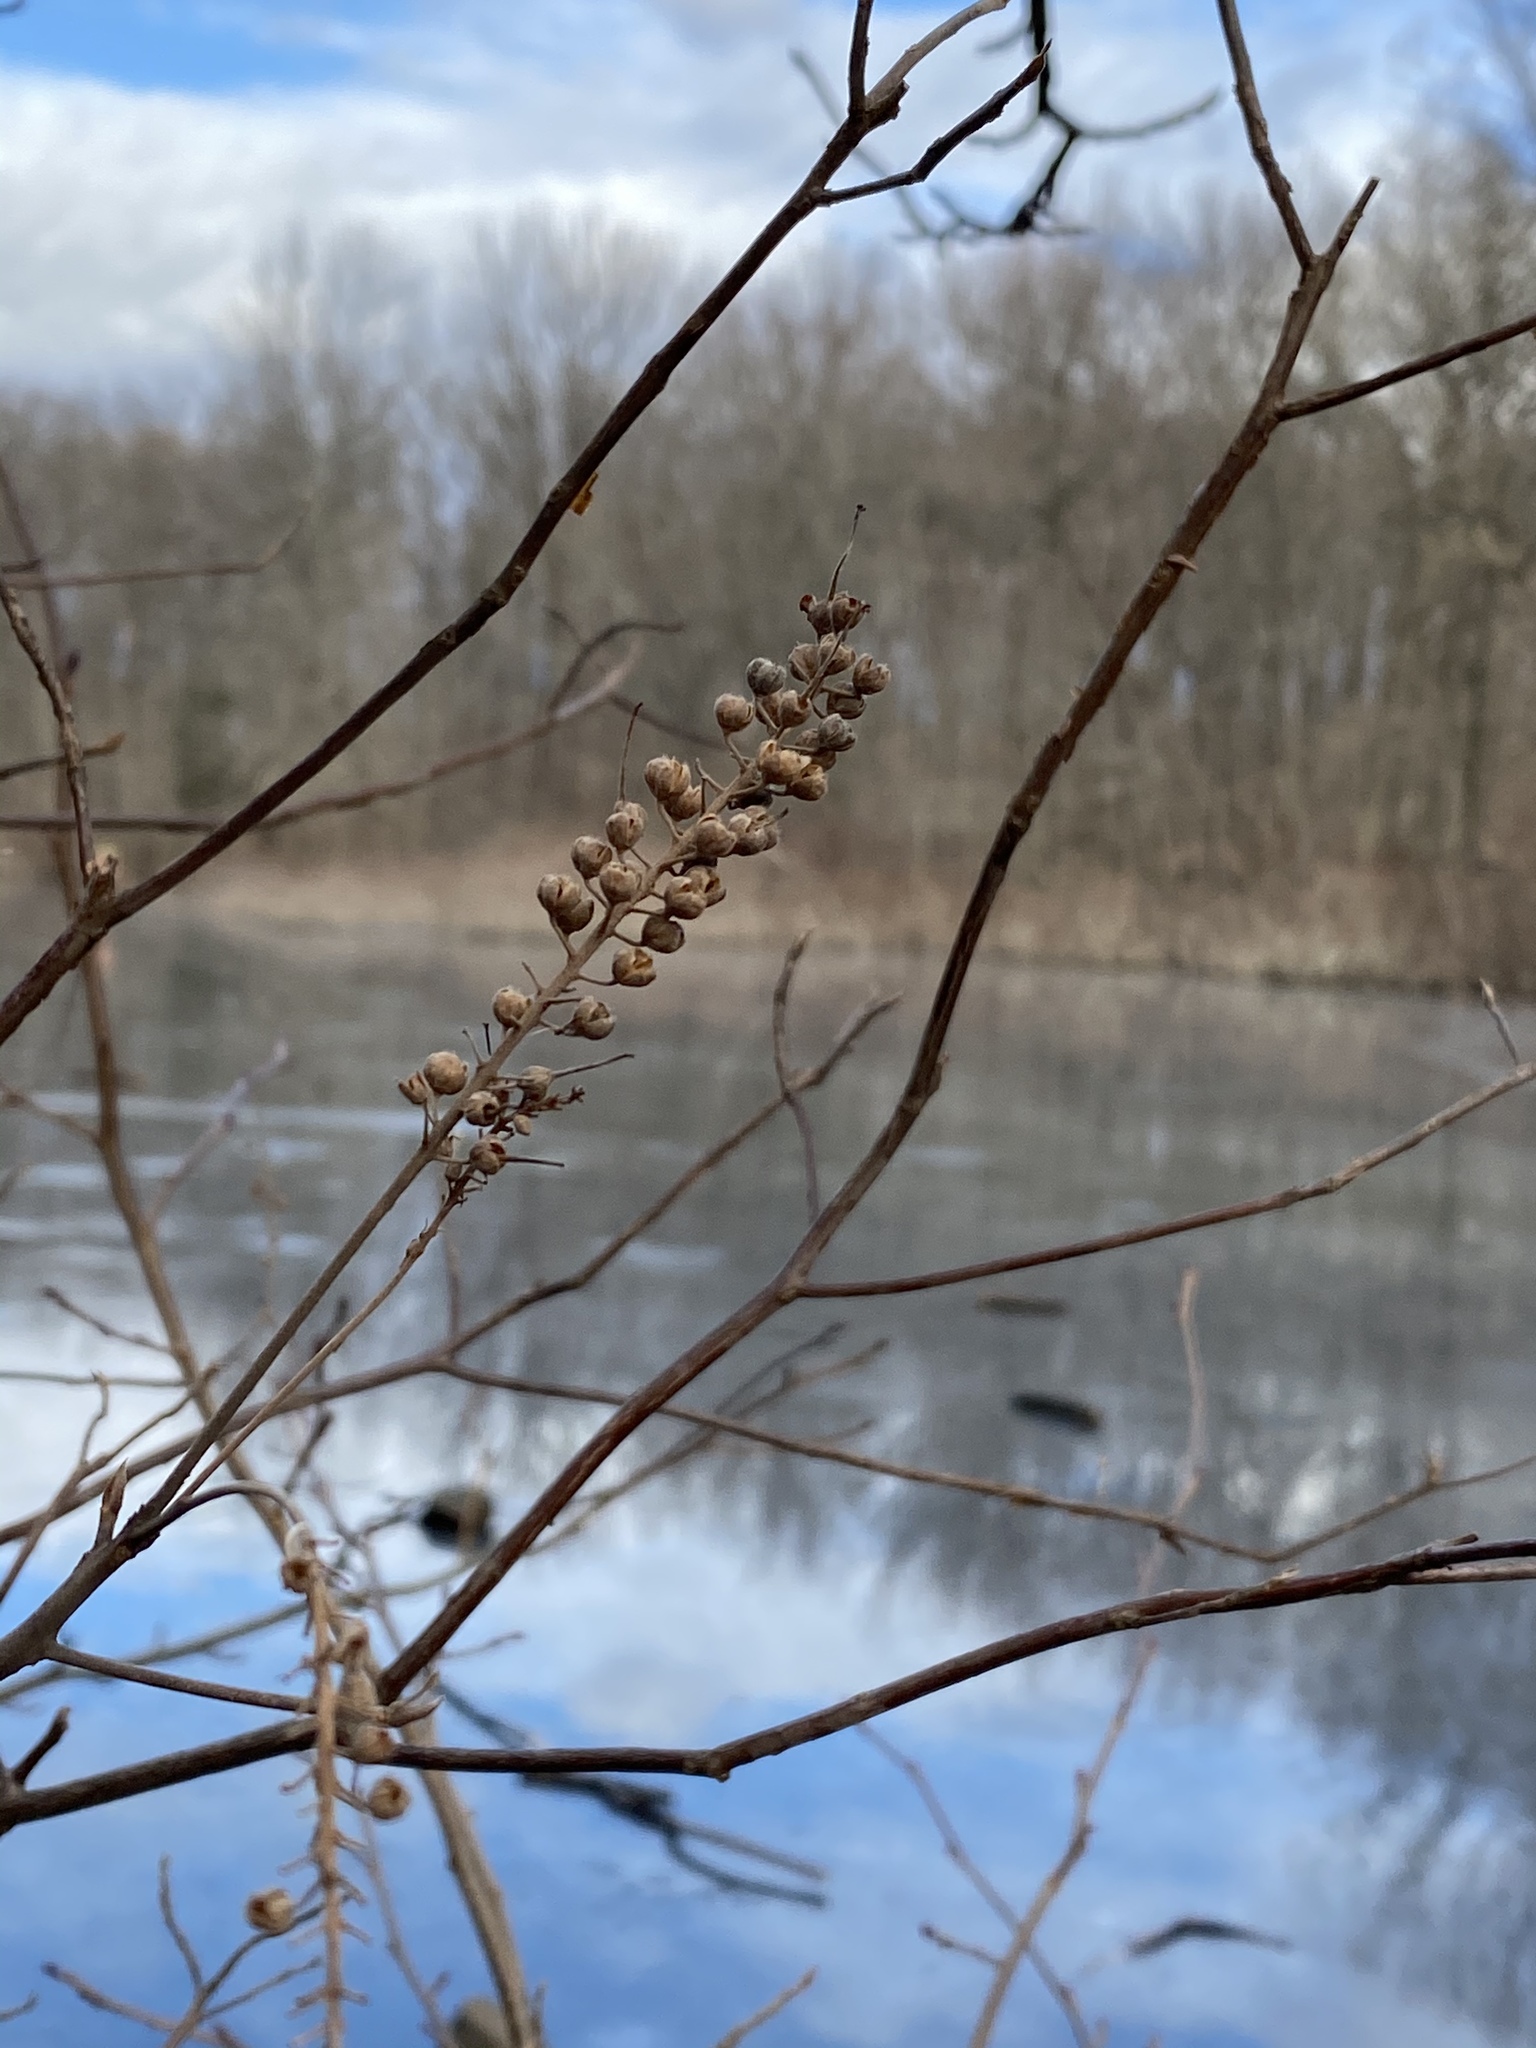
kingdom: Plantae
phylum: Tracheophyta
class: Magnoliopsida
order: Ericales
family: Clethraceae
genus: Clethra
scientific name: Clethra alnifolia
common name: Sweet pepperbush
